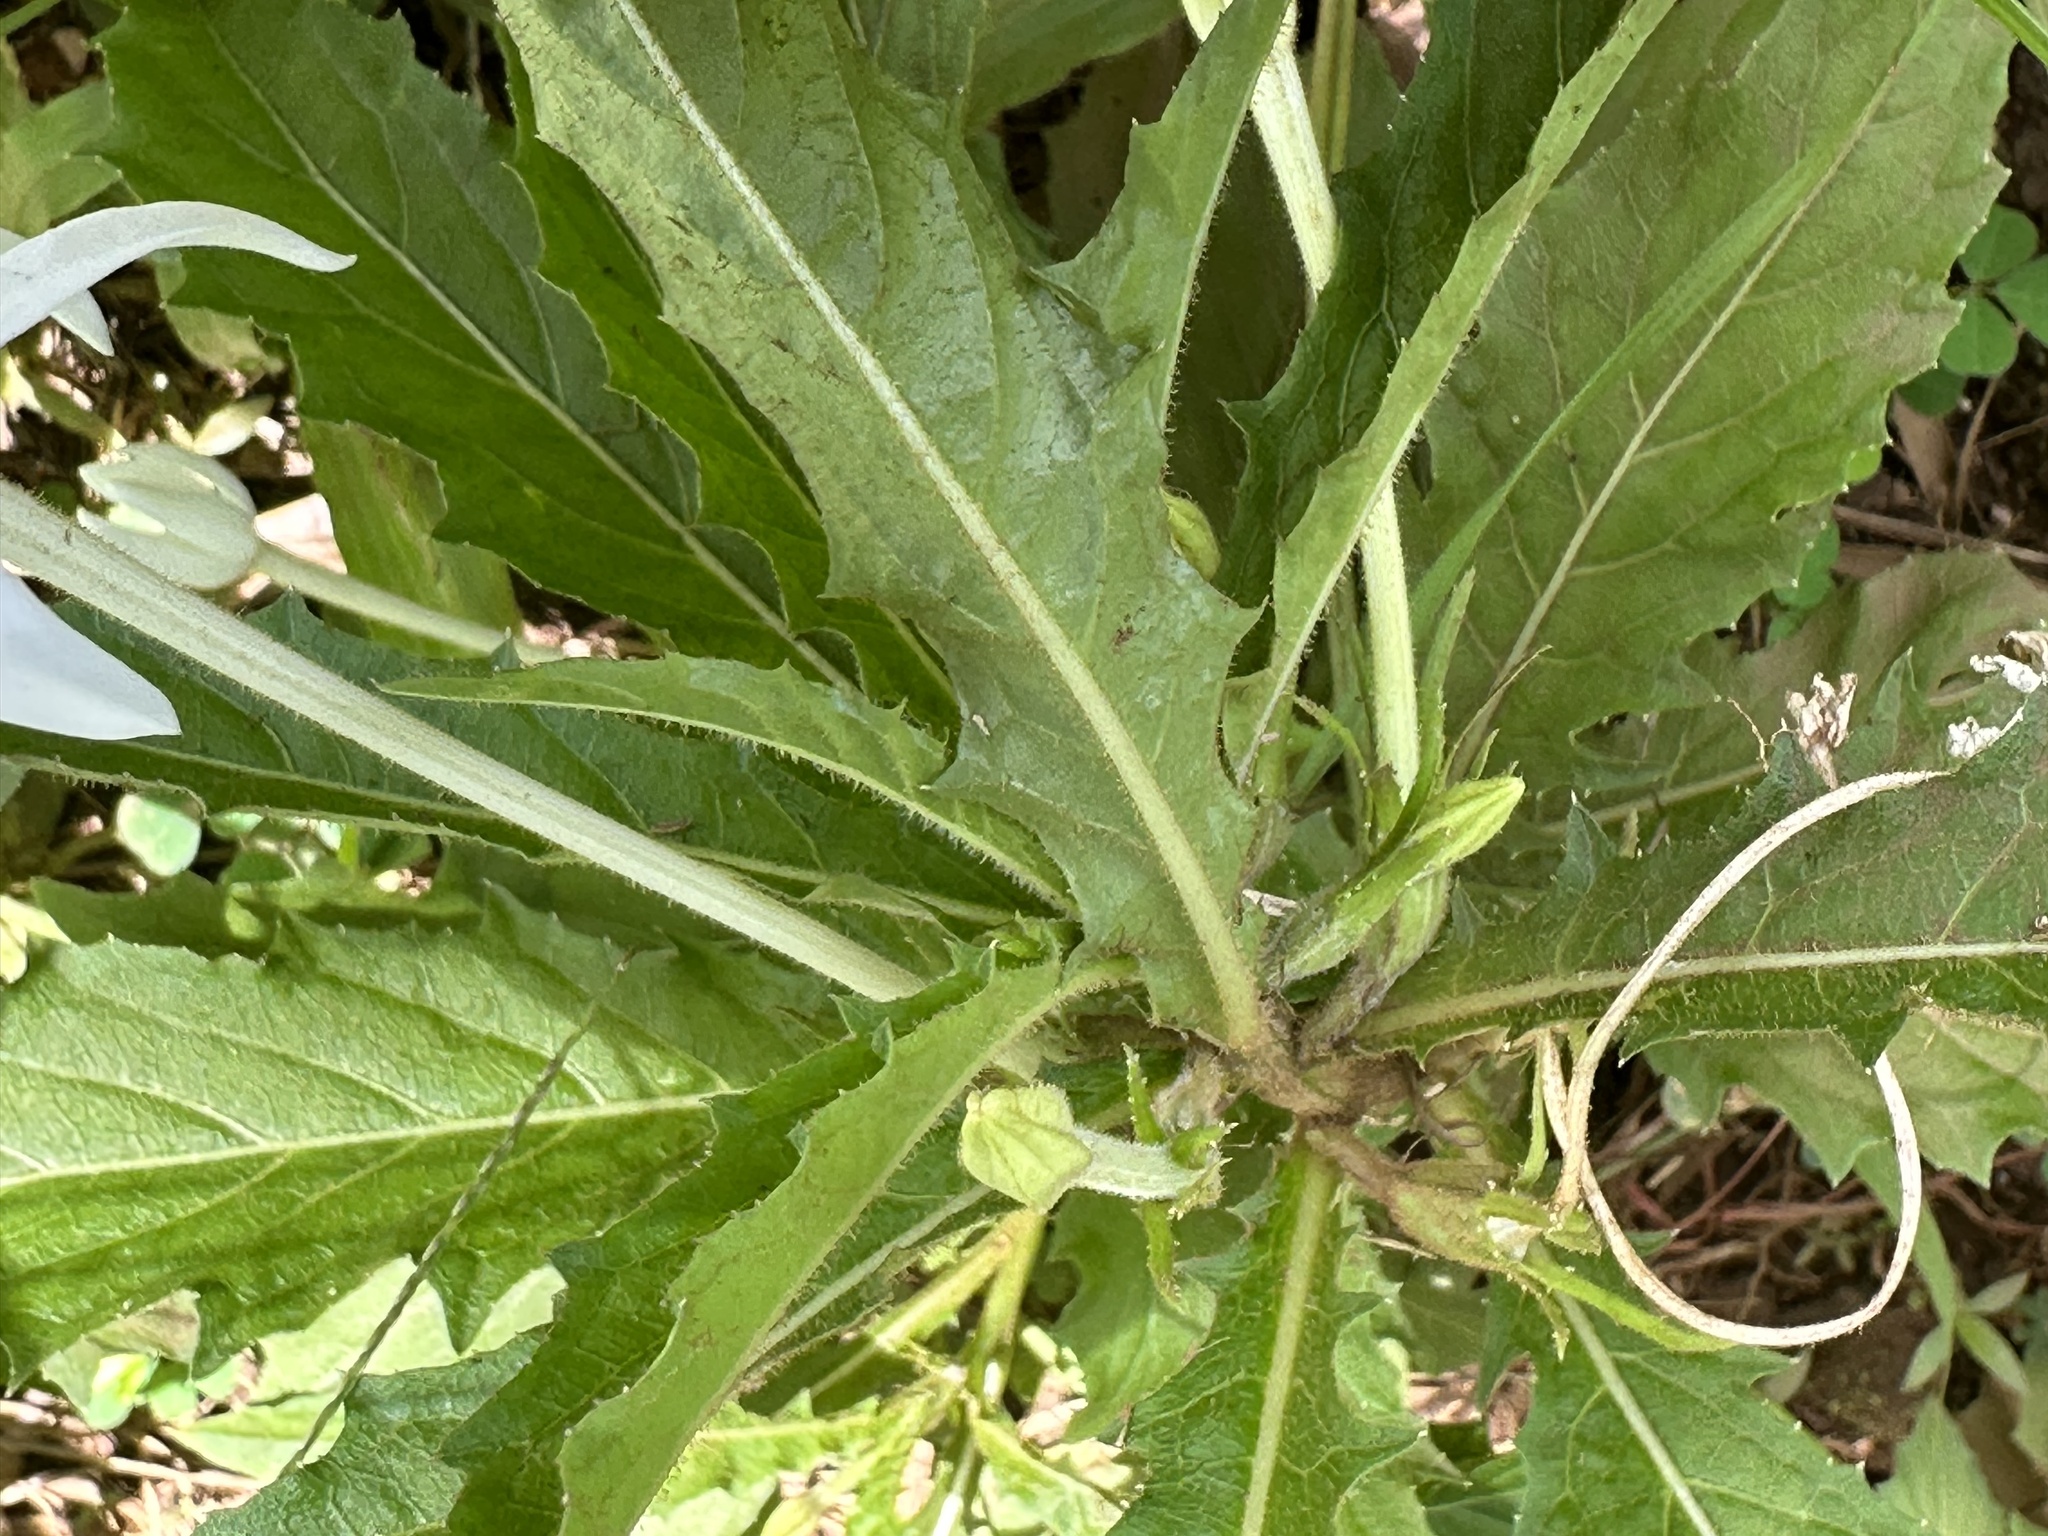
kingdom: Plantae
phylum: Tracheophyta
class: Magnoliopsida
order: Asterales
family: Campanulaceae
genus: Hippobroma
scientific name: Hippobroma longiflora
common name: Madamfate
